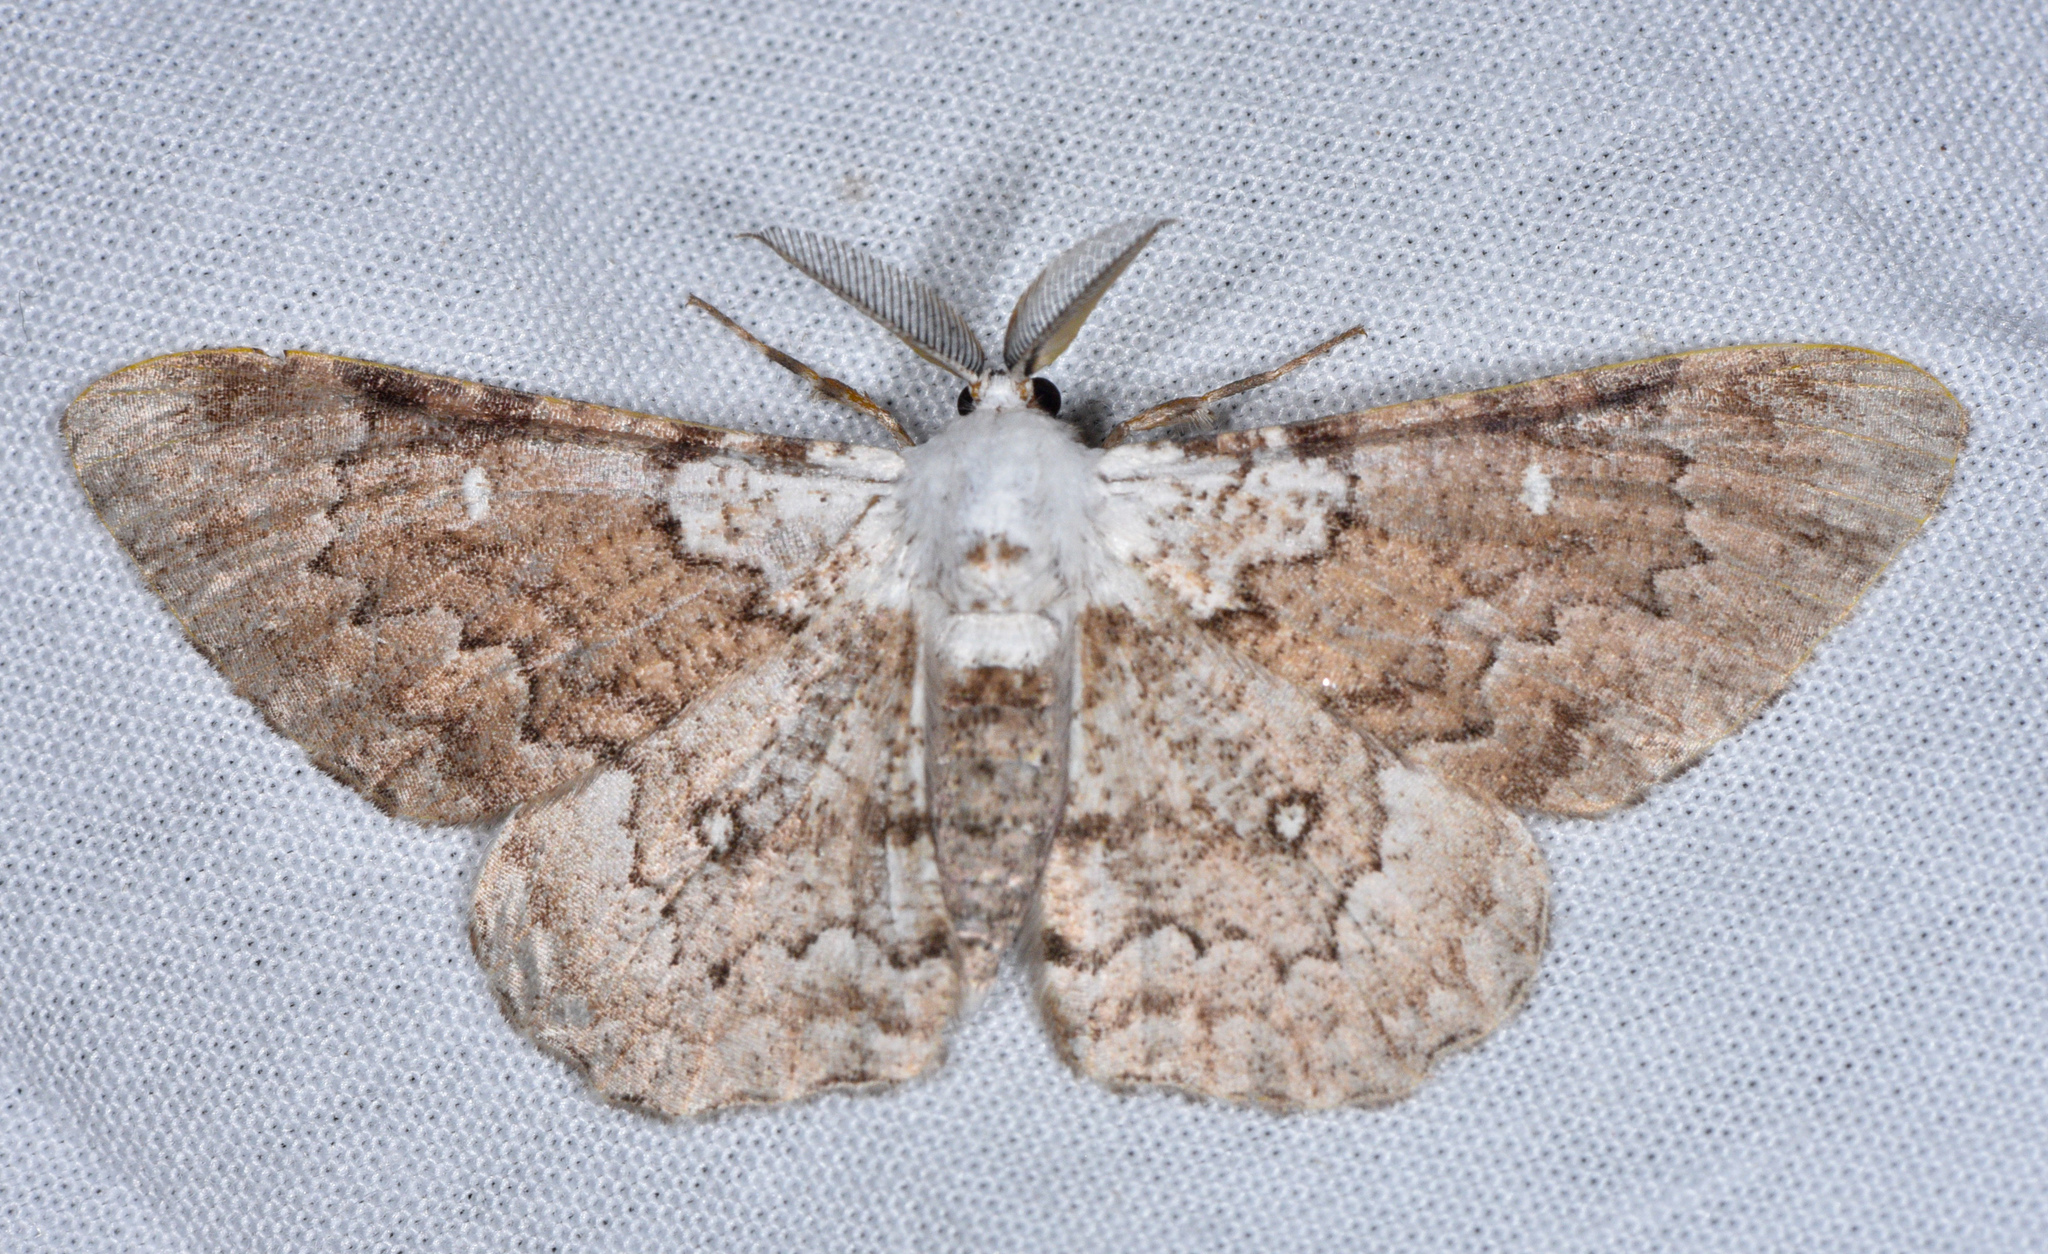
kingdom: Animalia
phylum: Arthropoda
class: Insecta
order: Lepidoptera
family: Geometridae
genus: Thyrinteina
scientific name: Thyrinteina arnobia
